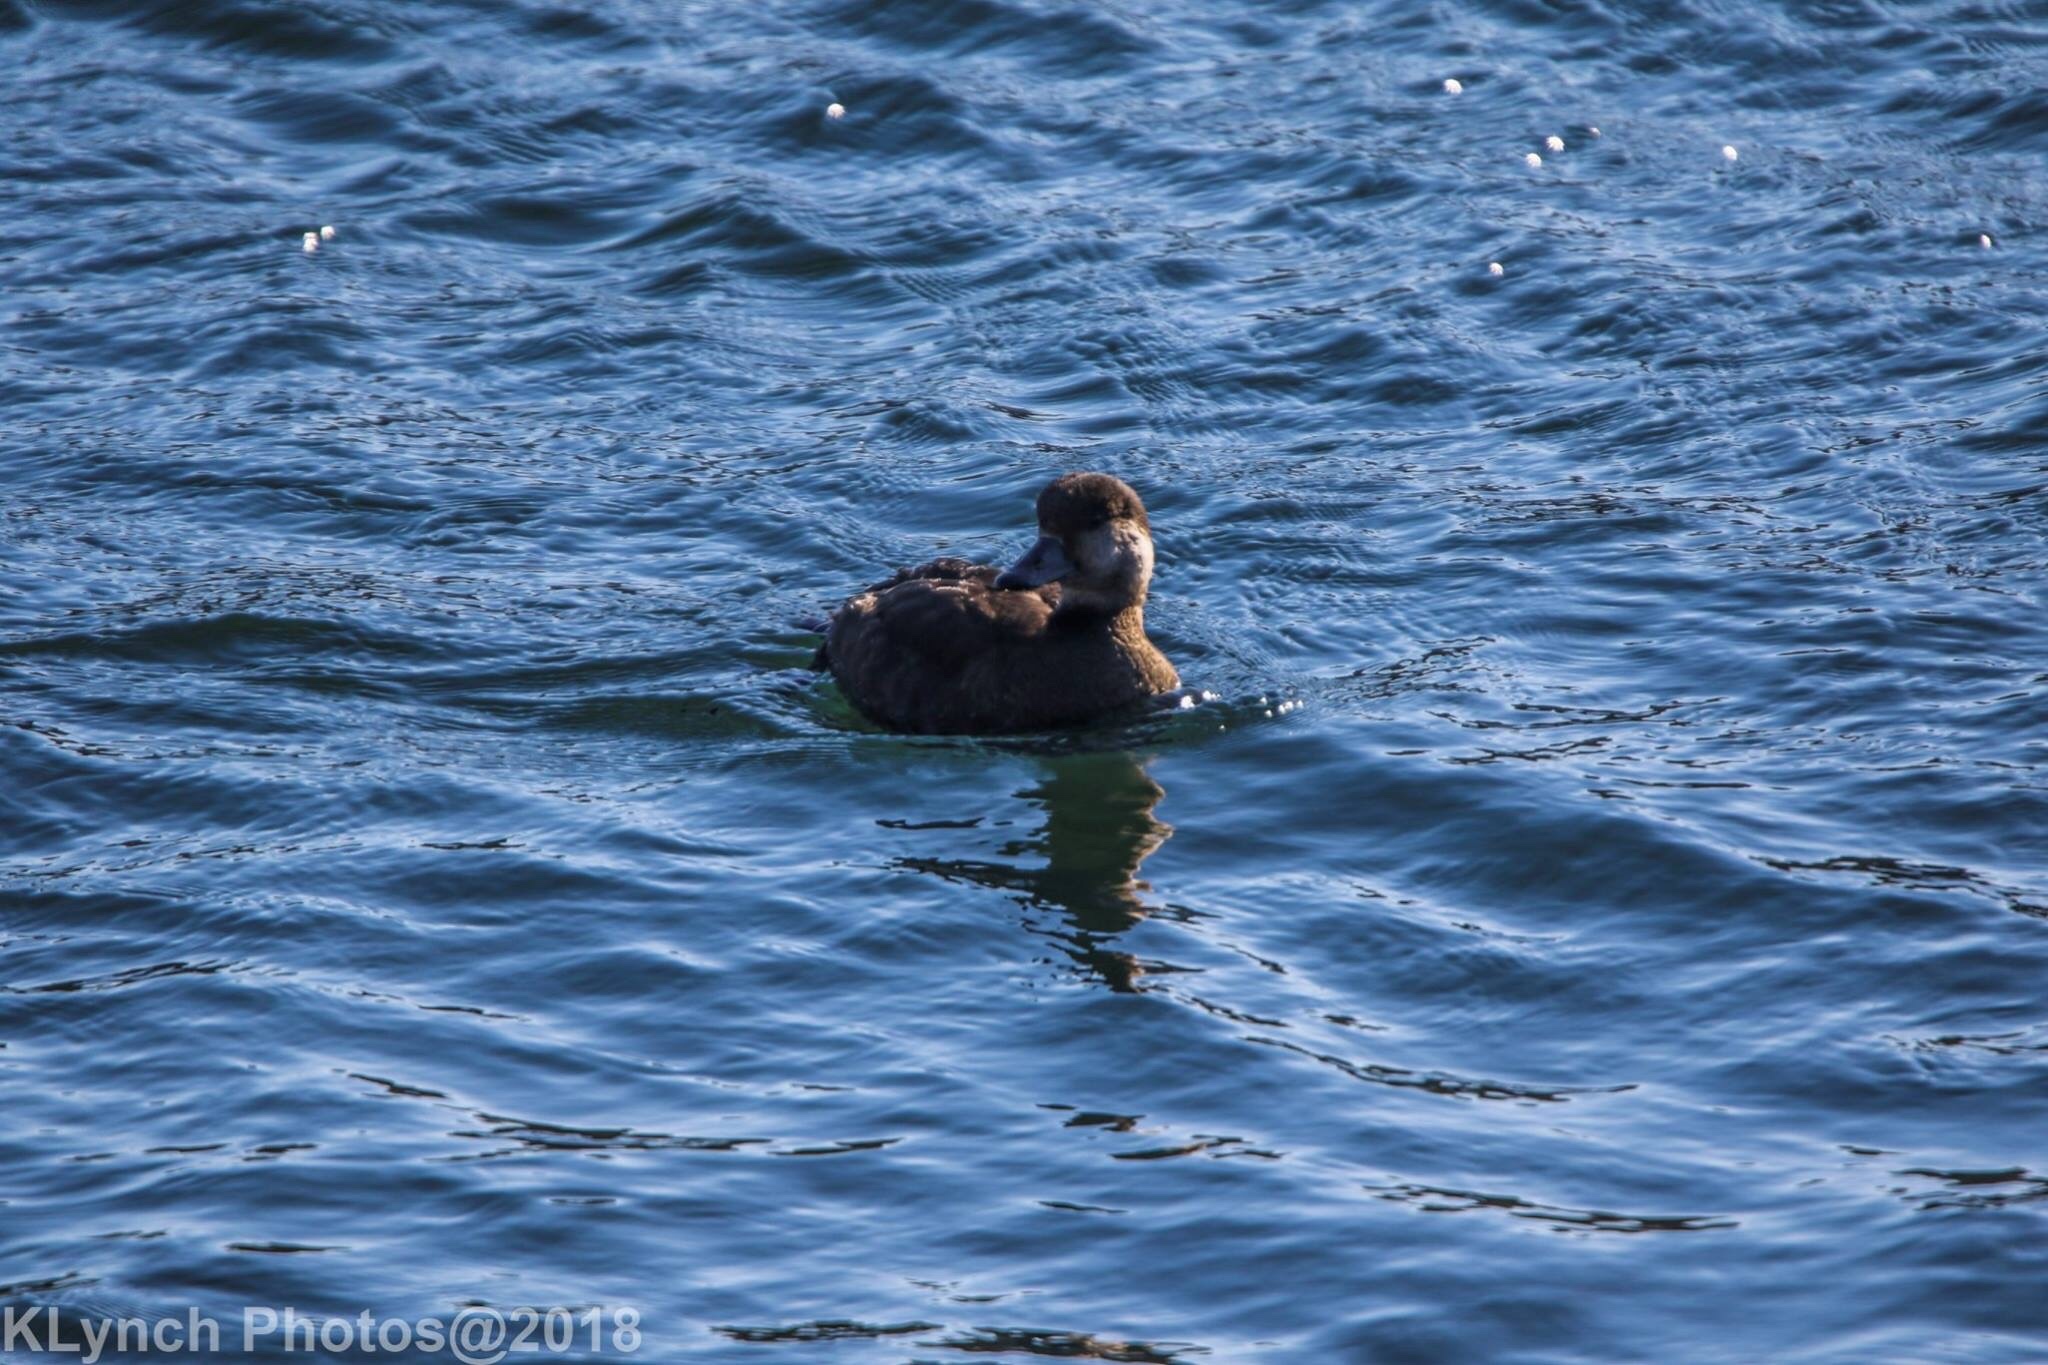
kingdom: Animalia
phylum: Chordata
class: Aves
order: Anseriformes
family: Anatidae
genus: Melanitta
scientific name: Melanitta americana
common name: Black scoter
